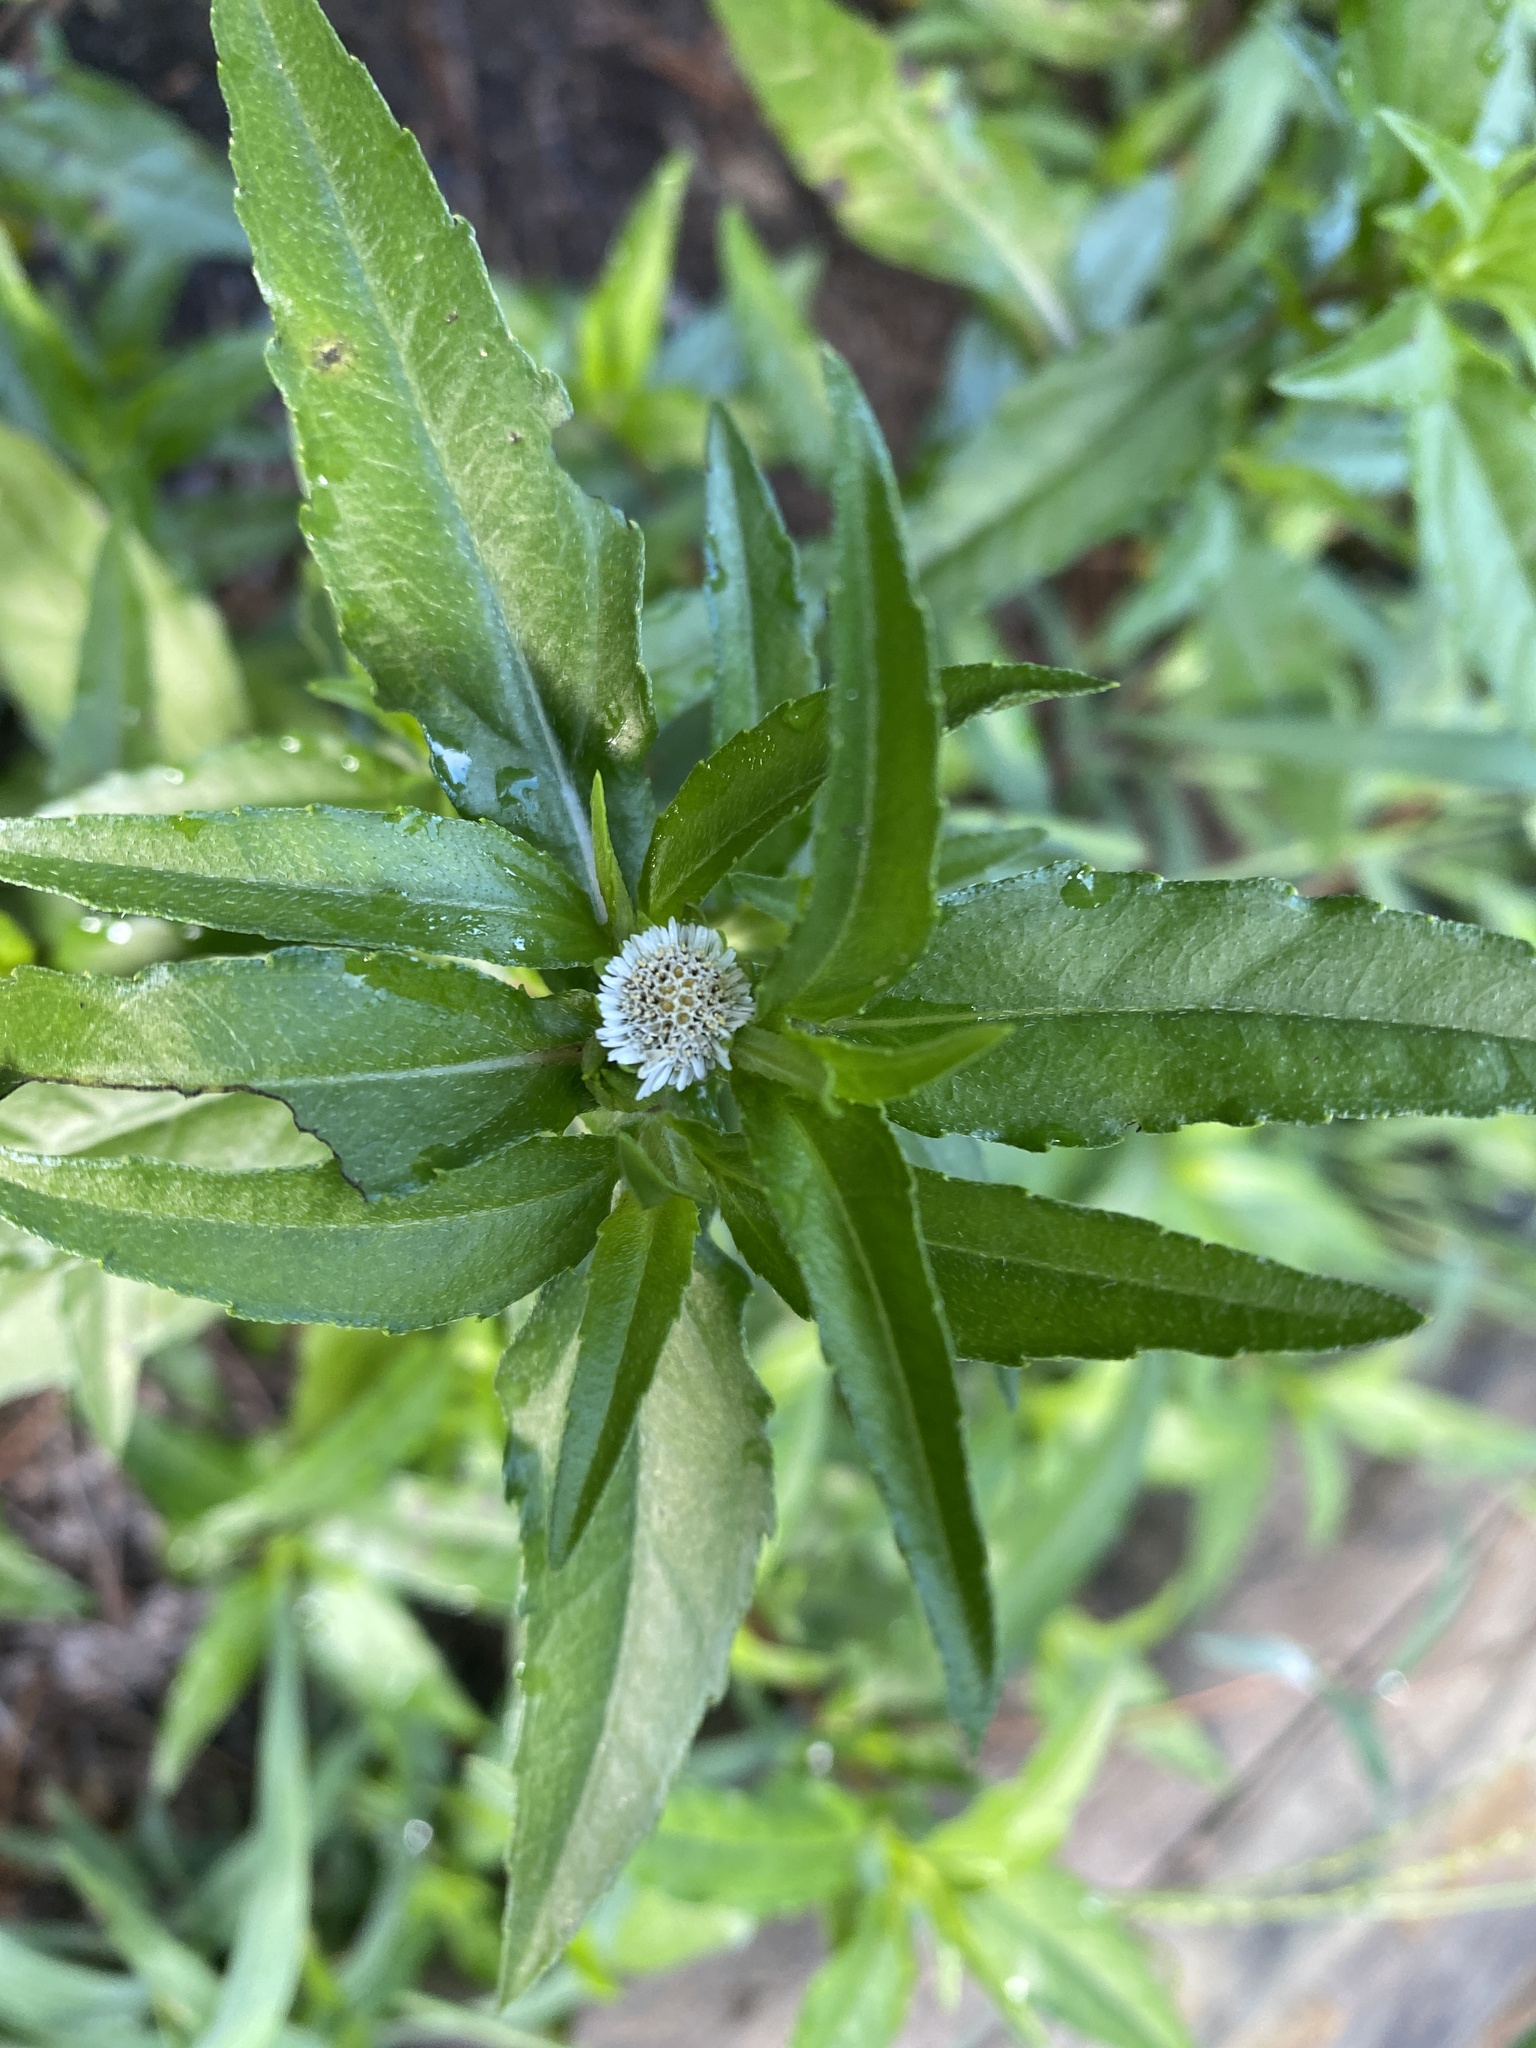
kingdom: Plantae
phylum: Tracheophyta
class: Magnoliopsida
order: Asterales
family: Asteraceae
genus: Eclipta
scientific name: Eclipta prostrata
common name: False daisy
